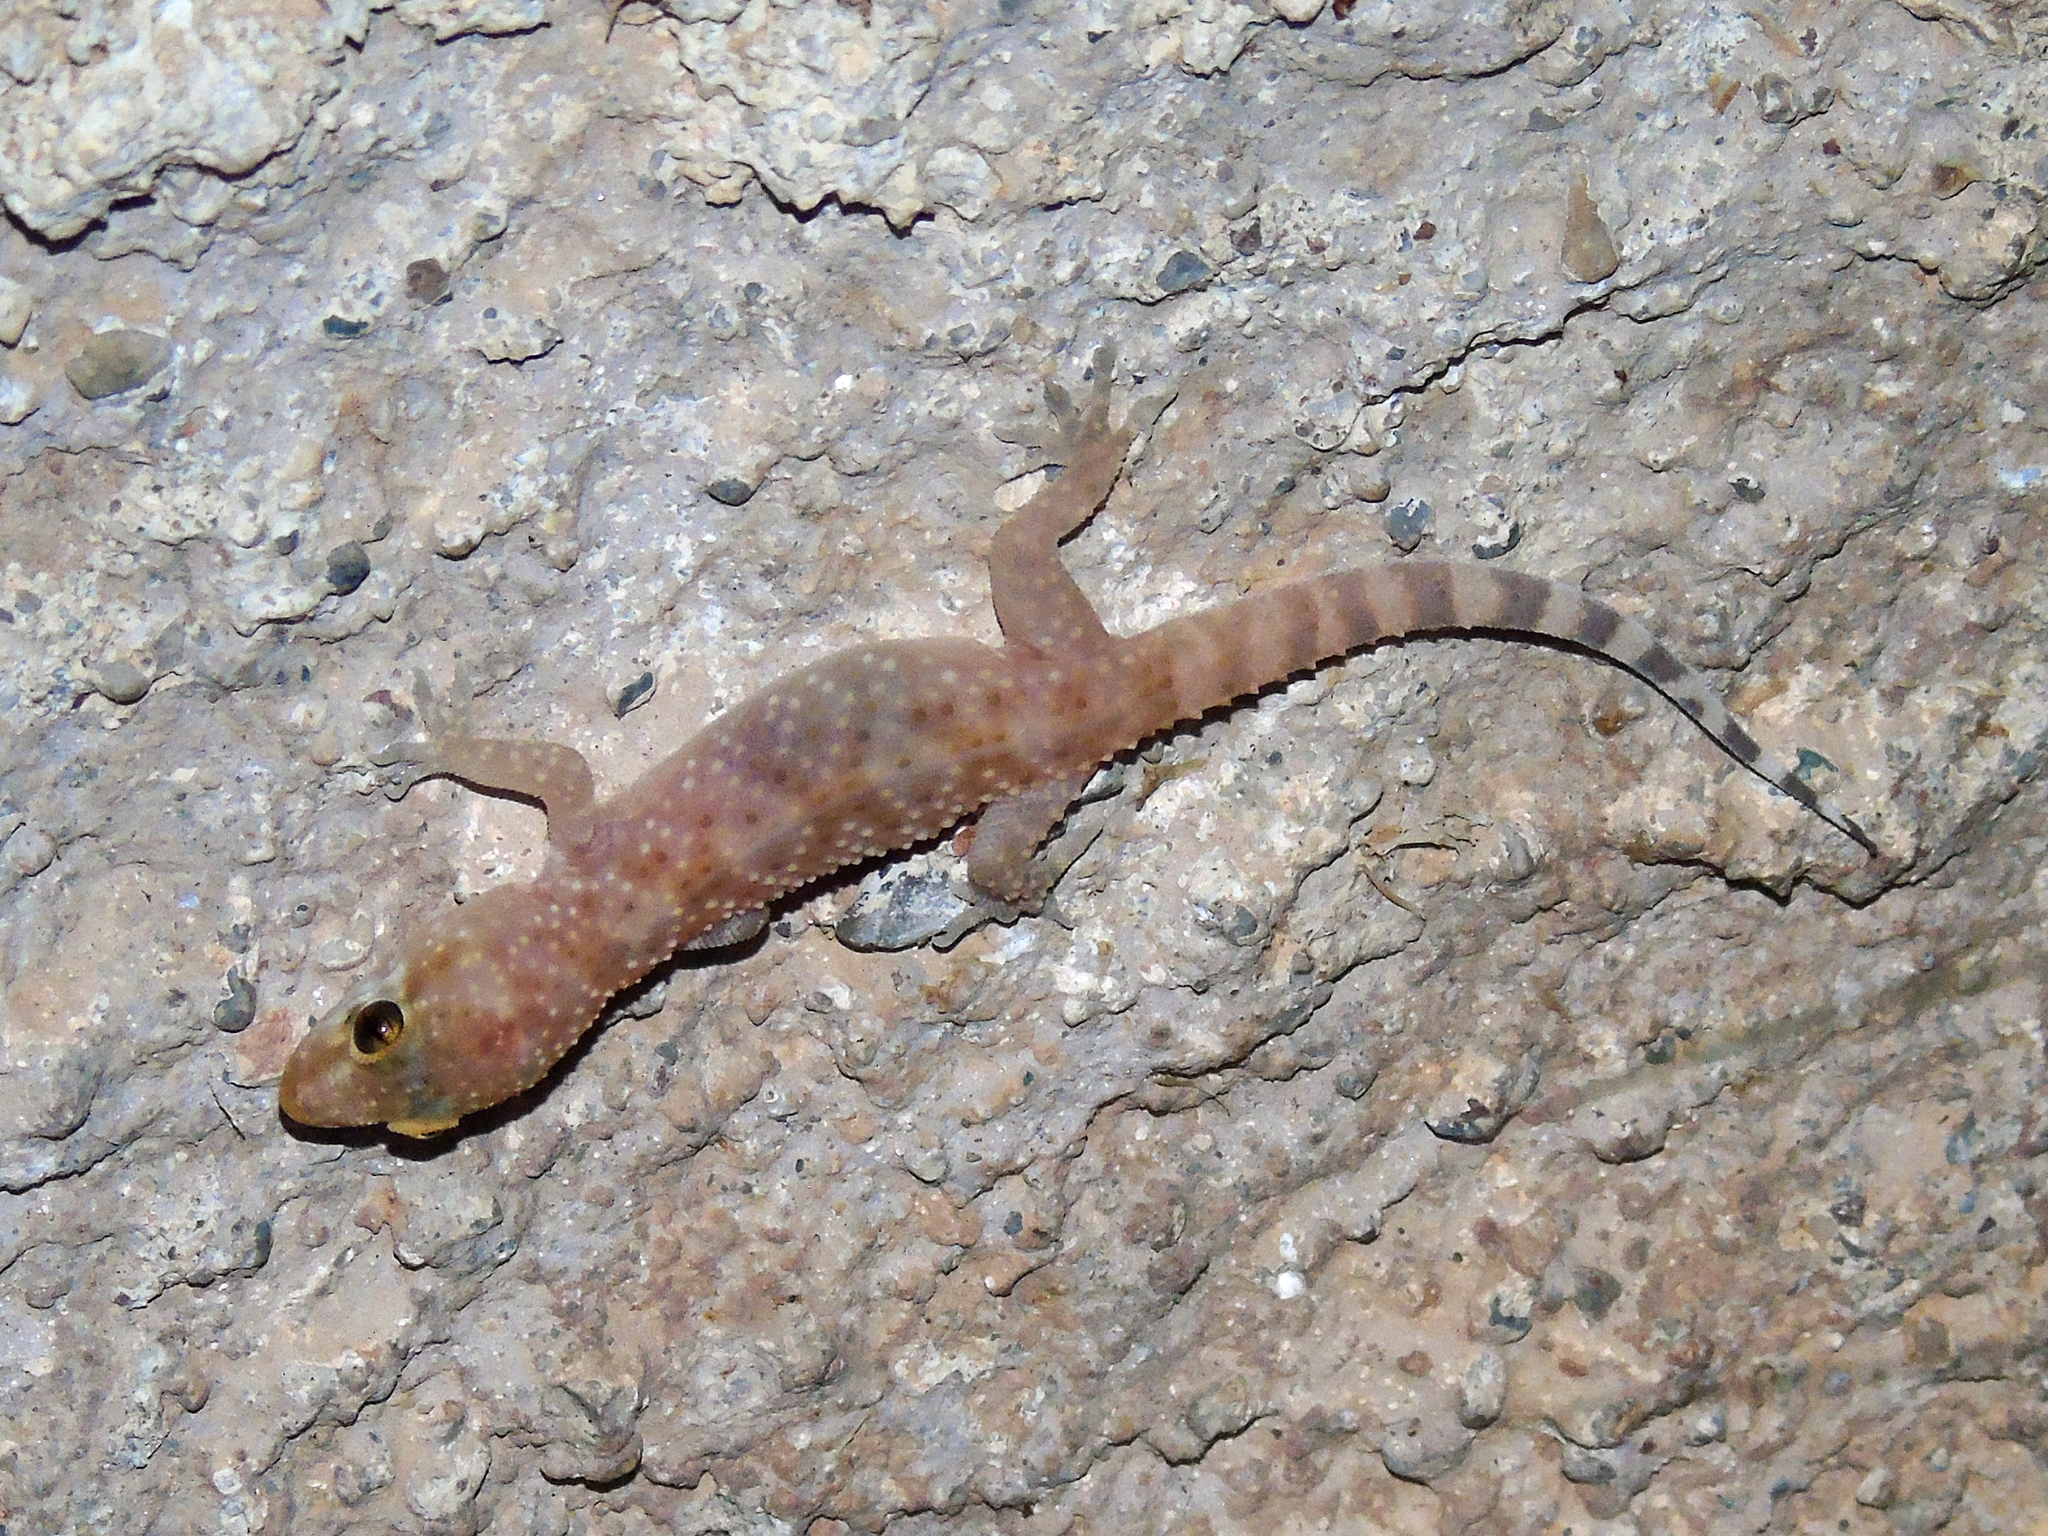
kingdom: Animalia
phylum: Chordata
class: Squamata
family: Gekkonidae
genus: Hemidactylus
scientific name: Hemidactylus turcicus
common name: Turkish gecko
